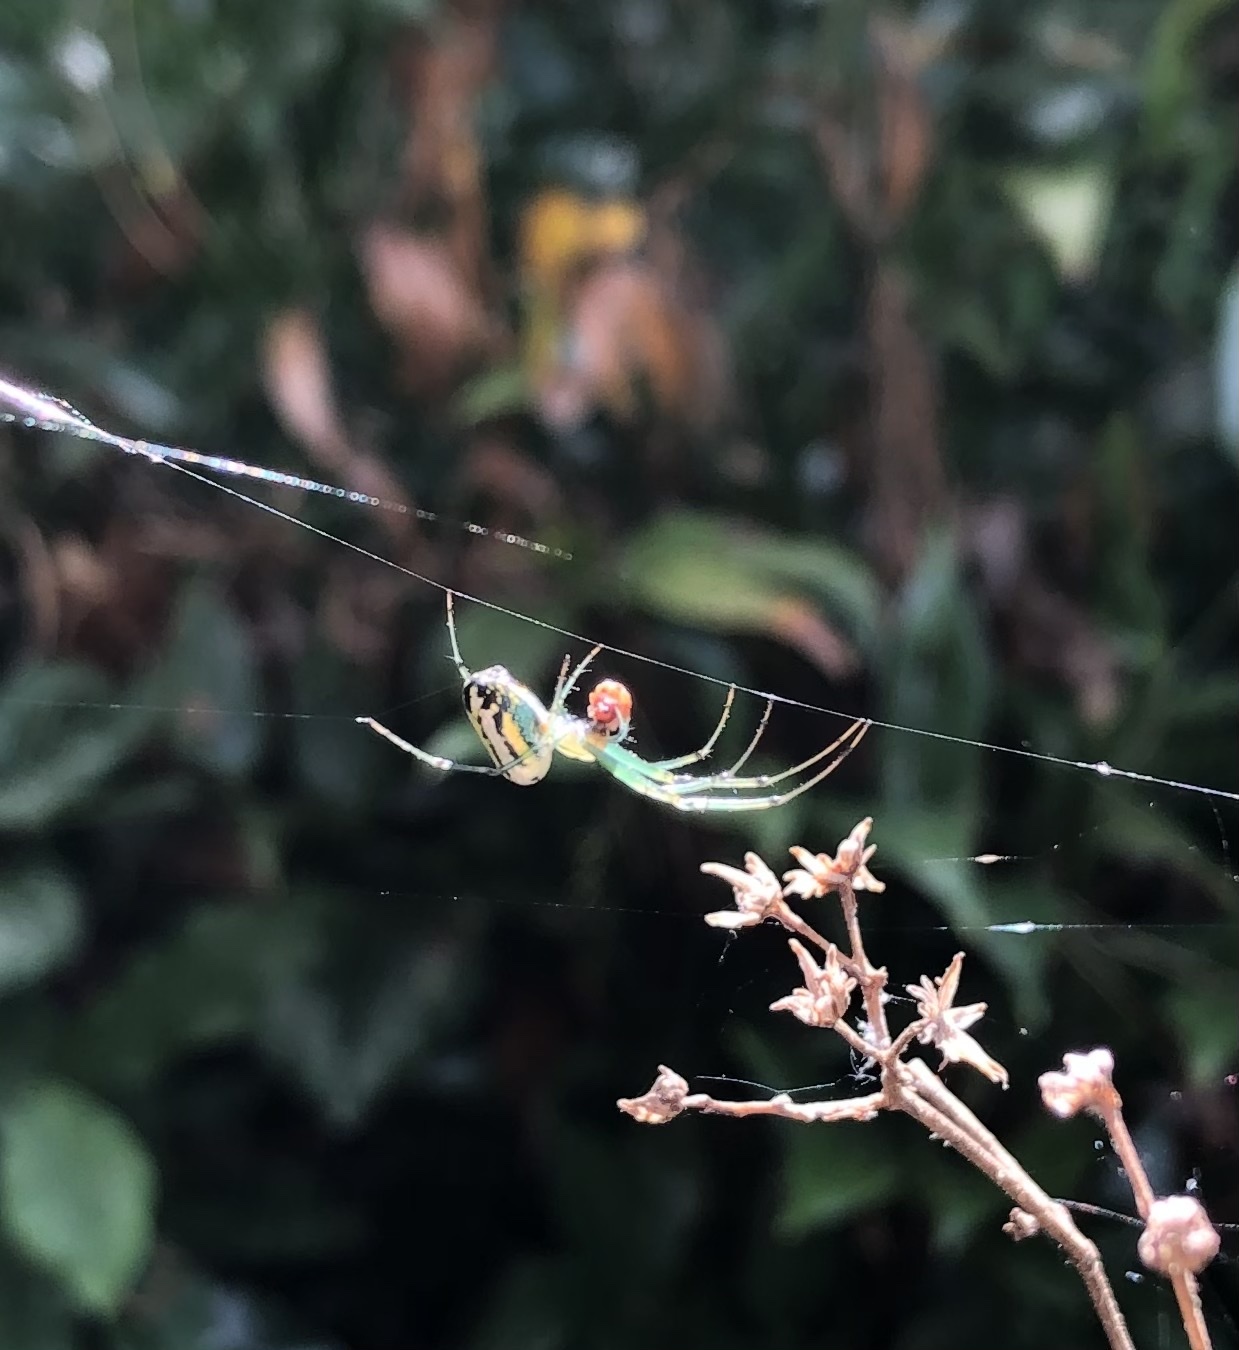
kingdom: Animalia
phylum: Arthropoda
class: Arachnida
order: Araneae
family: Tetragnathidae
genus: Leucauge
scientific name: Leucauge venusta
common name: Longjawed orb weavers
